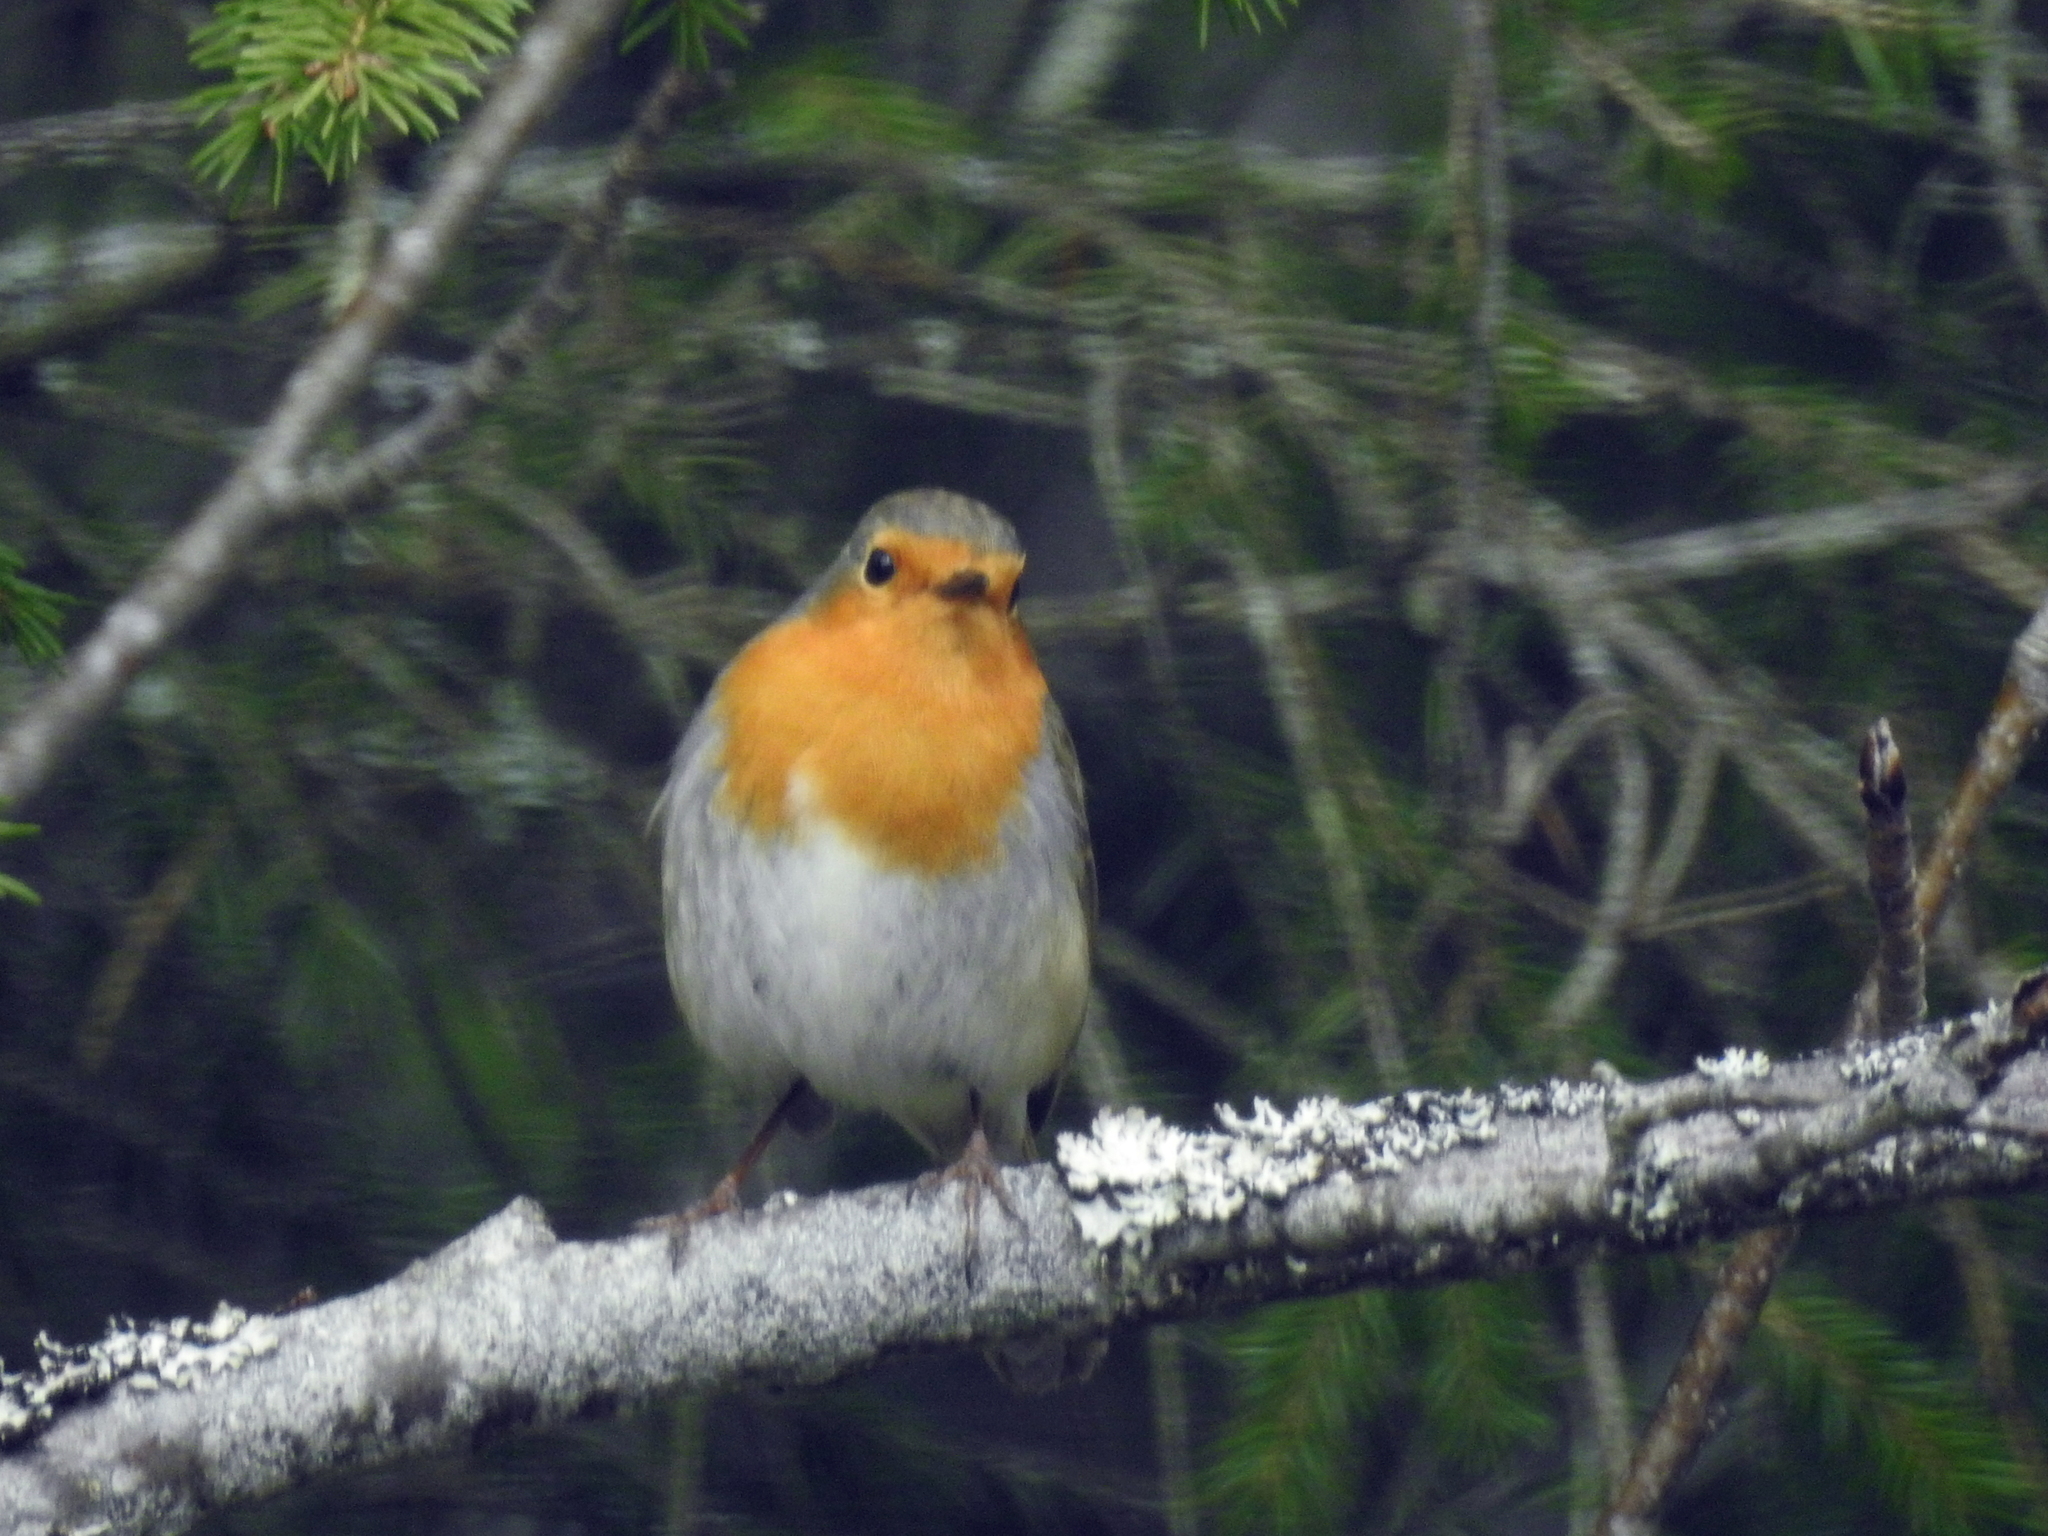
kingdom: Animalia
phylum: Chordata
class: Aves
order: Passeriformes
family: Muscicapidae
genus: Erithacus
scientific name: Erithacus rubecula
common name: European robin
